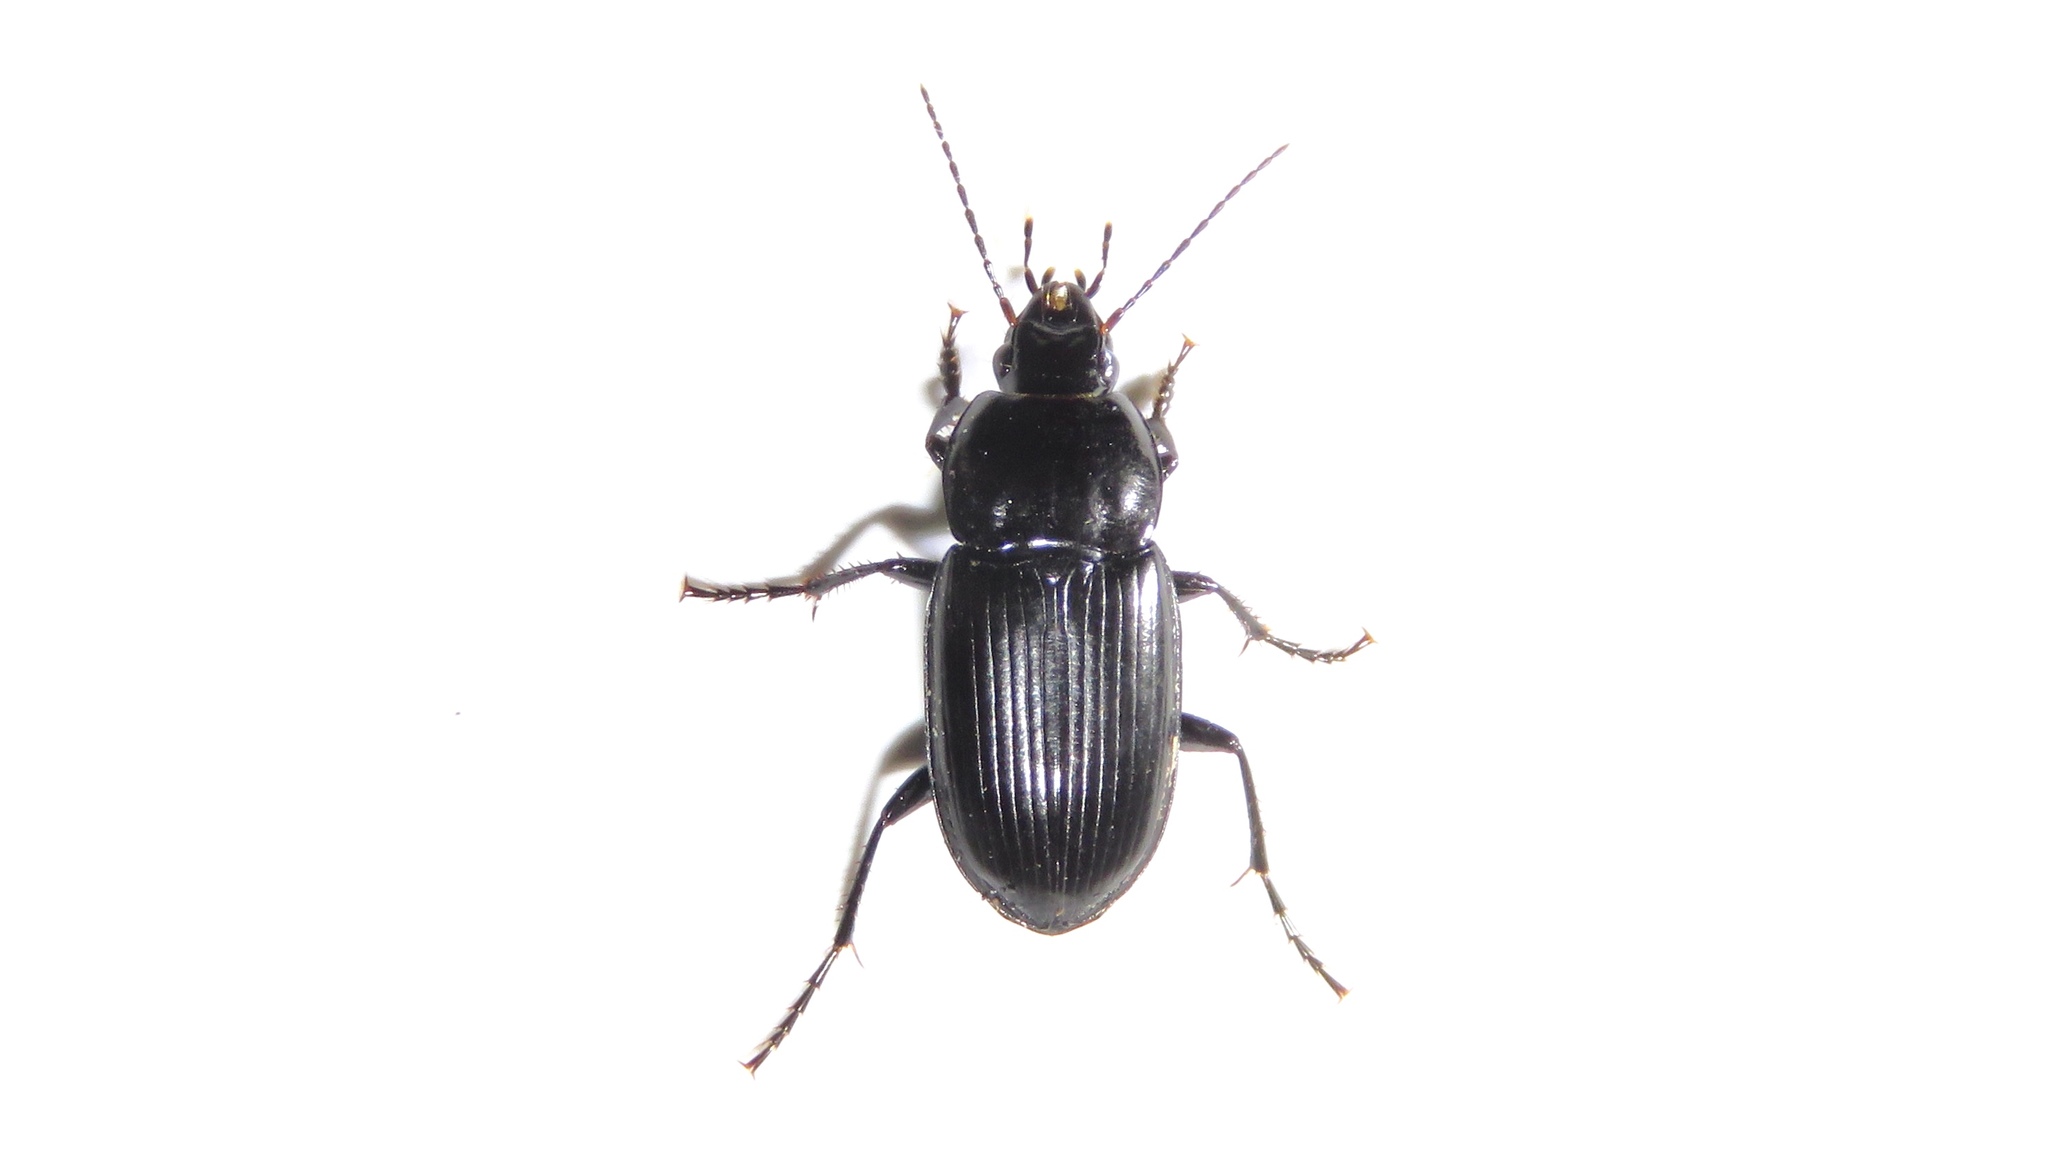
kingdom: Animalia
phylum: Arthropoda
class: Insecta
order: Coleoptera
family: Carabidae
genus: Diplocheila
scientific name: Diplocheila obtusa
